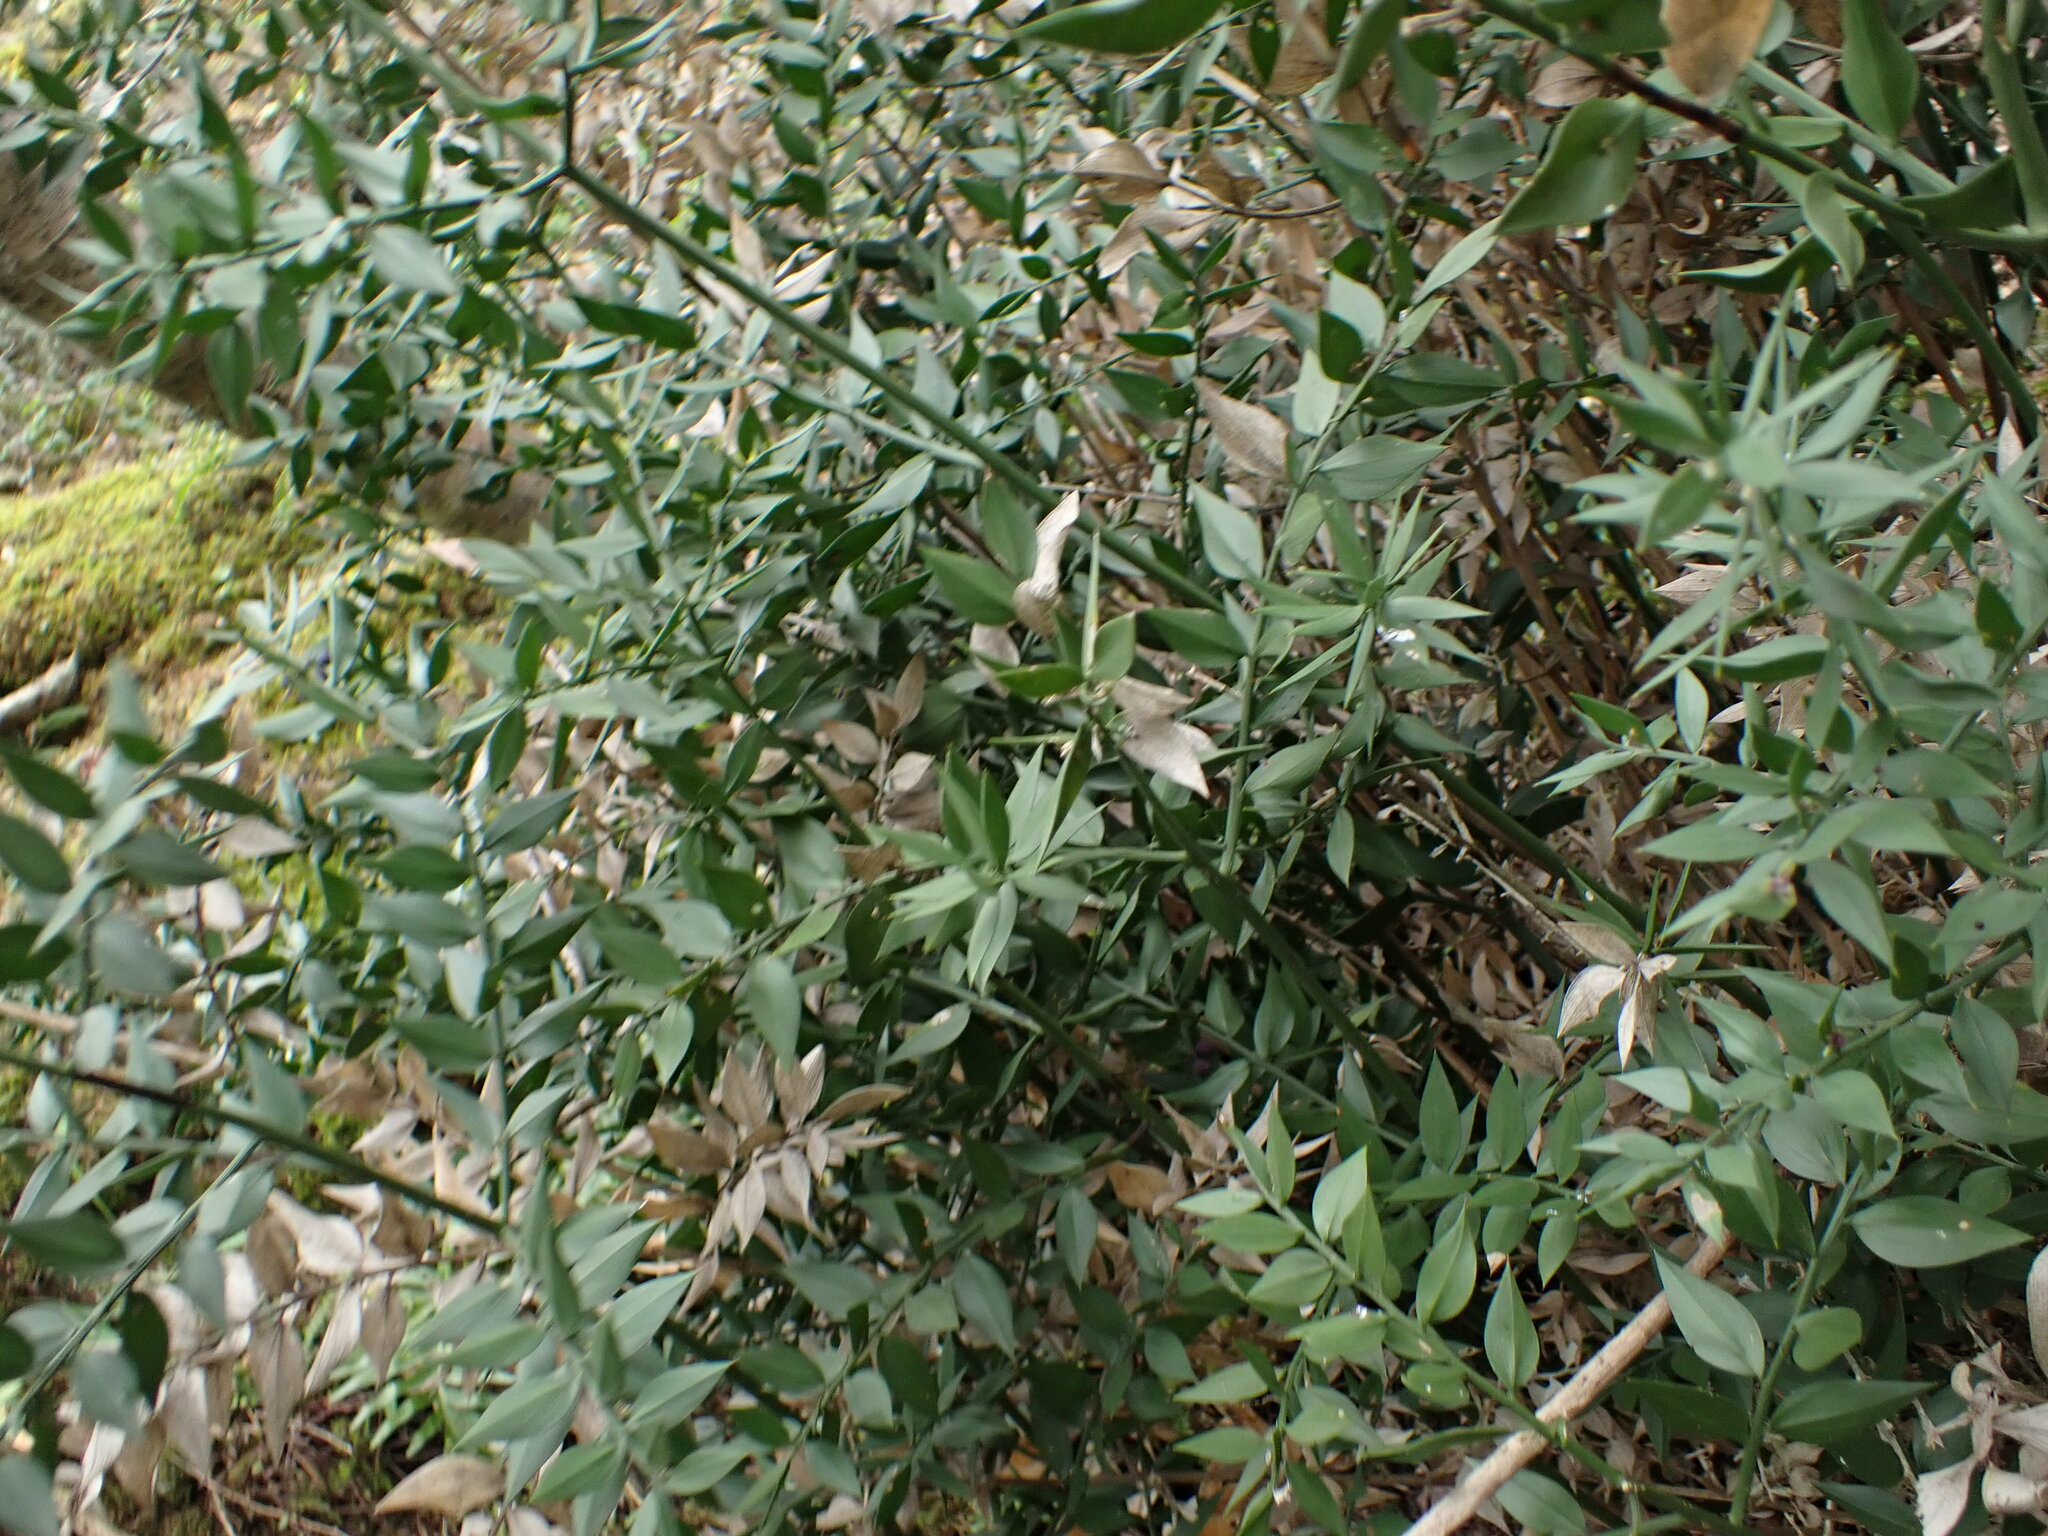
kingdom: Plantae
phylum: Tracheophyta
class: Liliopsida
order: Asparagales
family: Asparagaceae
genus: Ruscus
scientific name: Ruscus aculeatus
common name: Butcher's-broom
